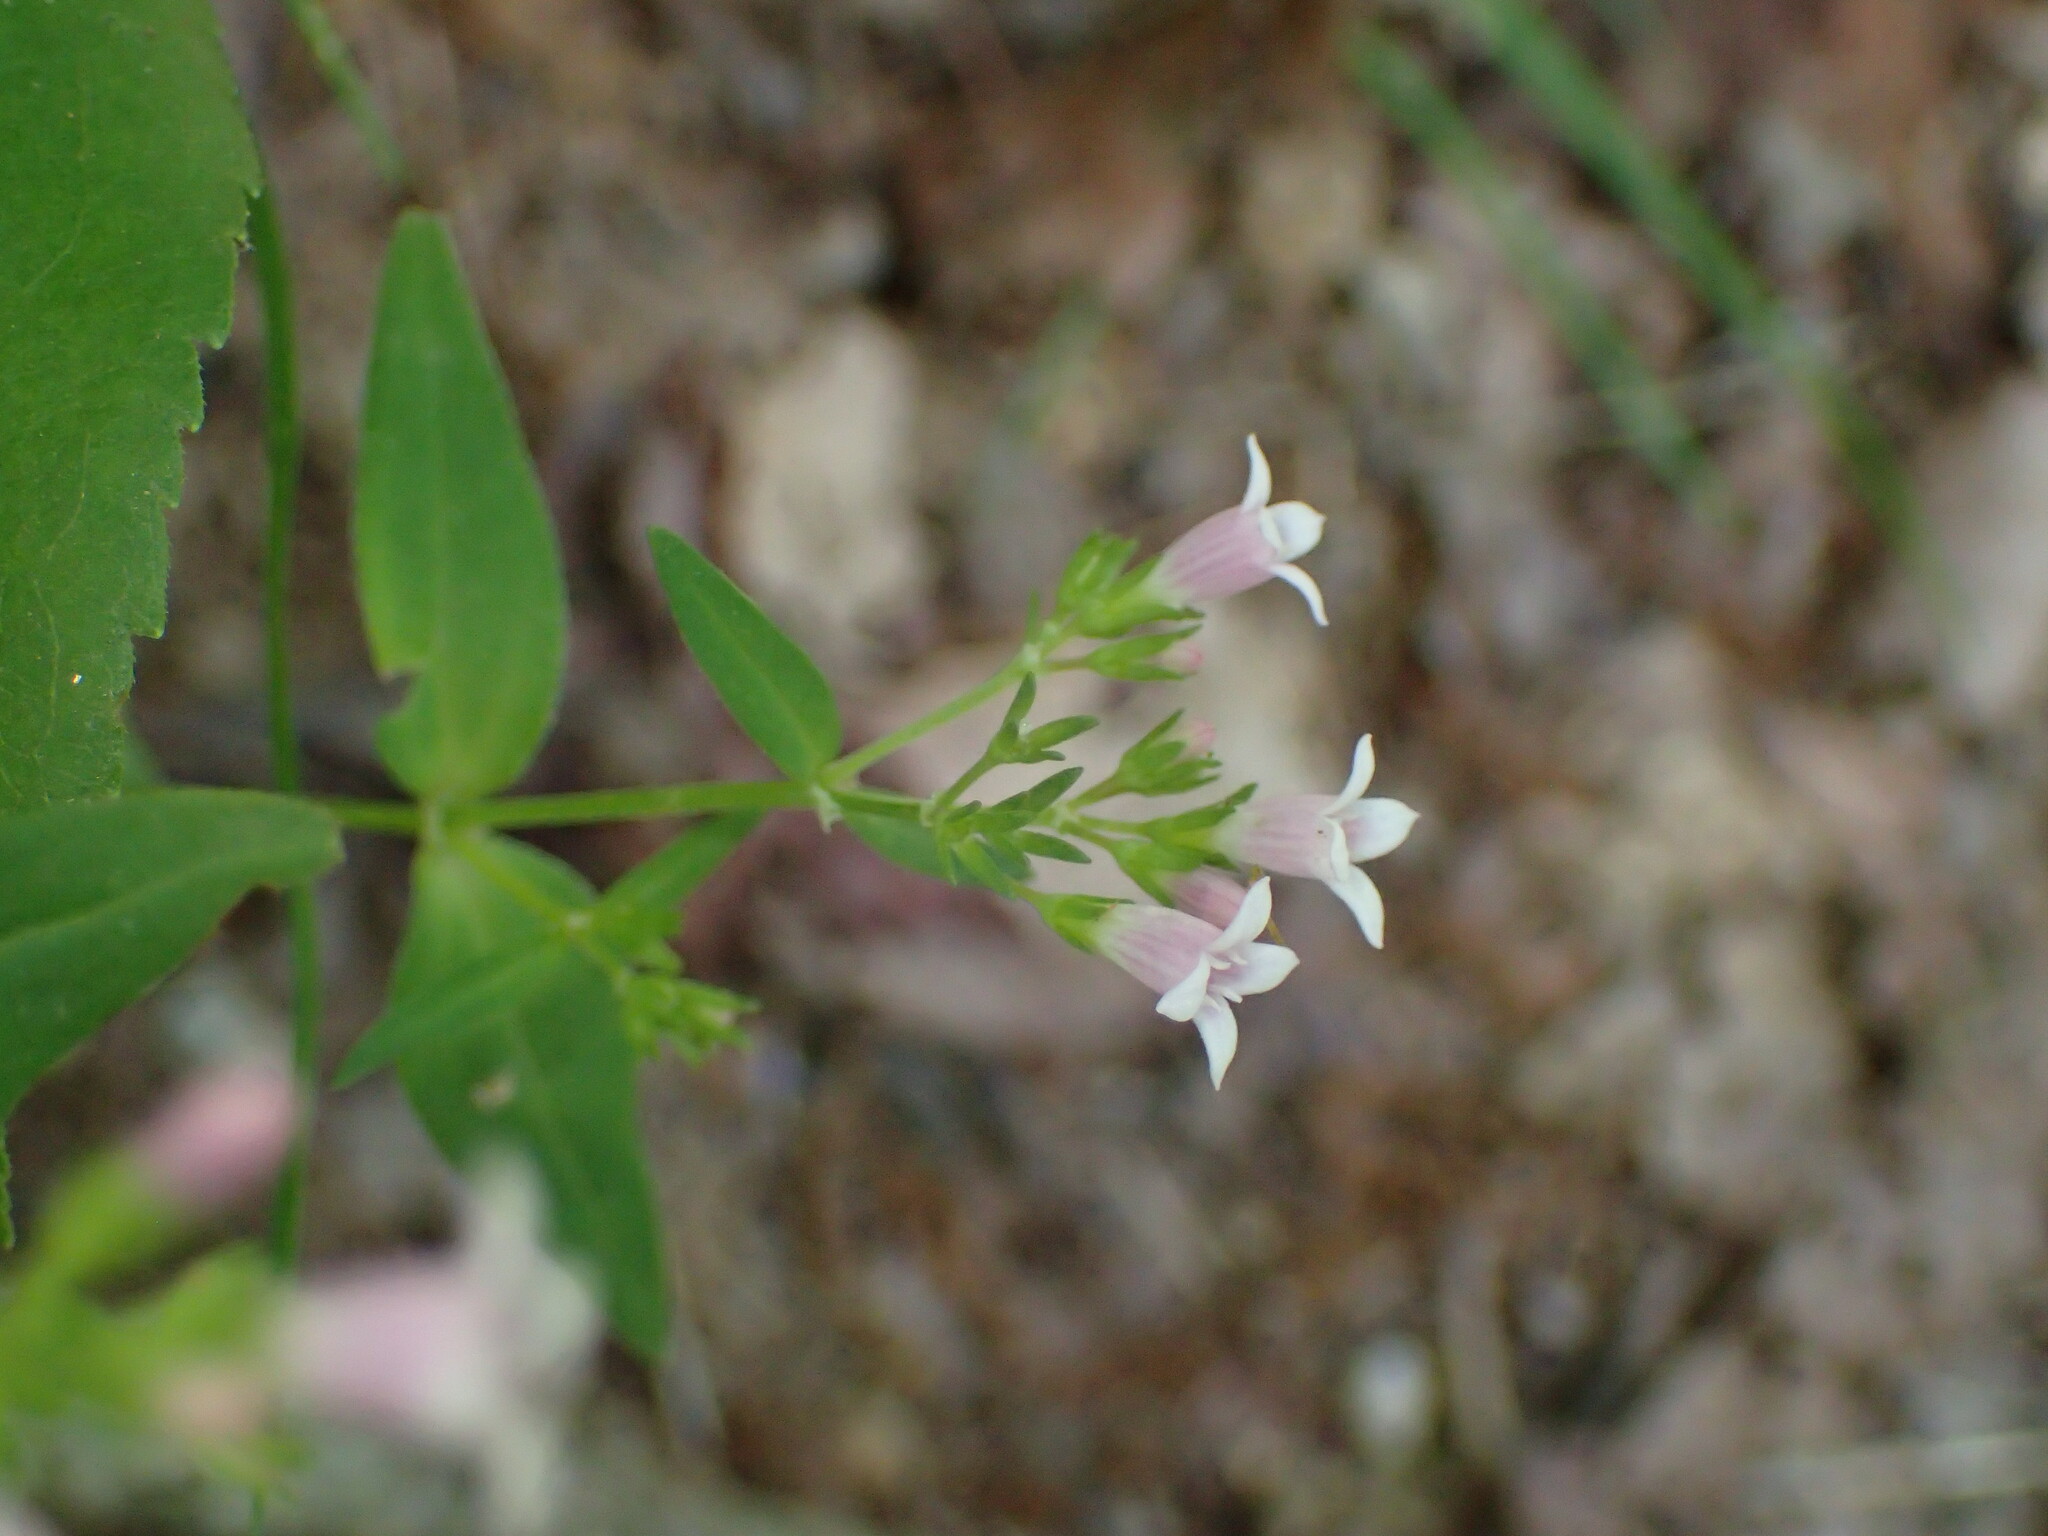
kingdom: Plantae
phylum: Tracheophyta
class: Magnoliopsida
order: Gentianales
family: Rubiaceae
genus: Houstonia
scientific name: Houstonia purpurea
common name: Summer bluet
